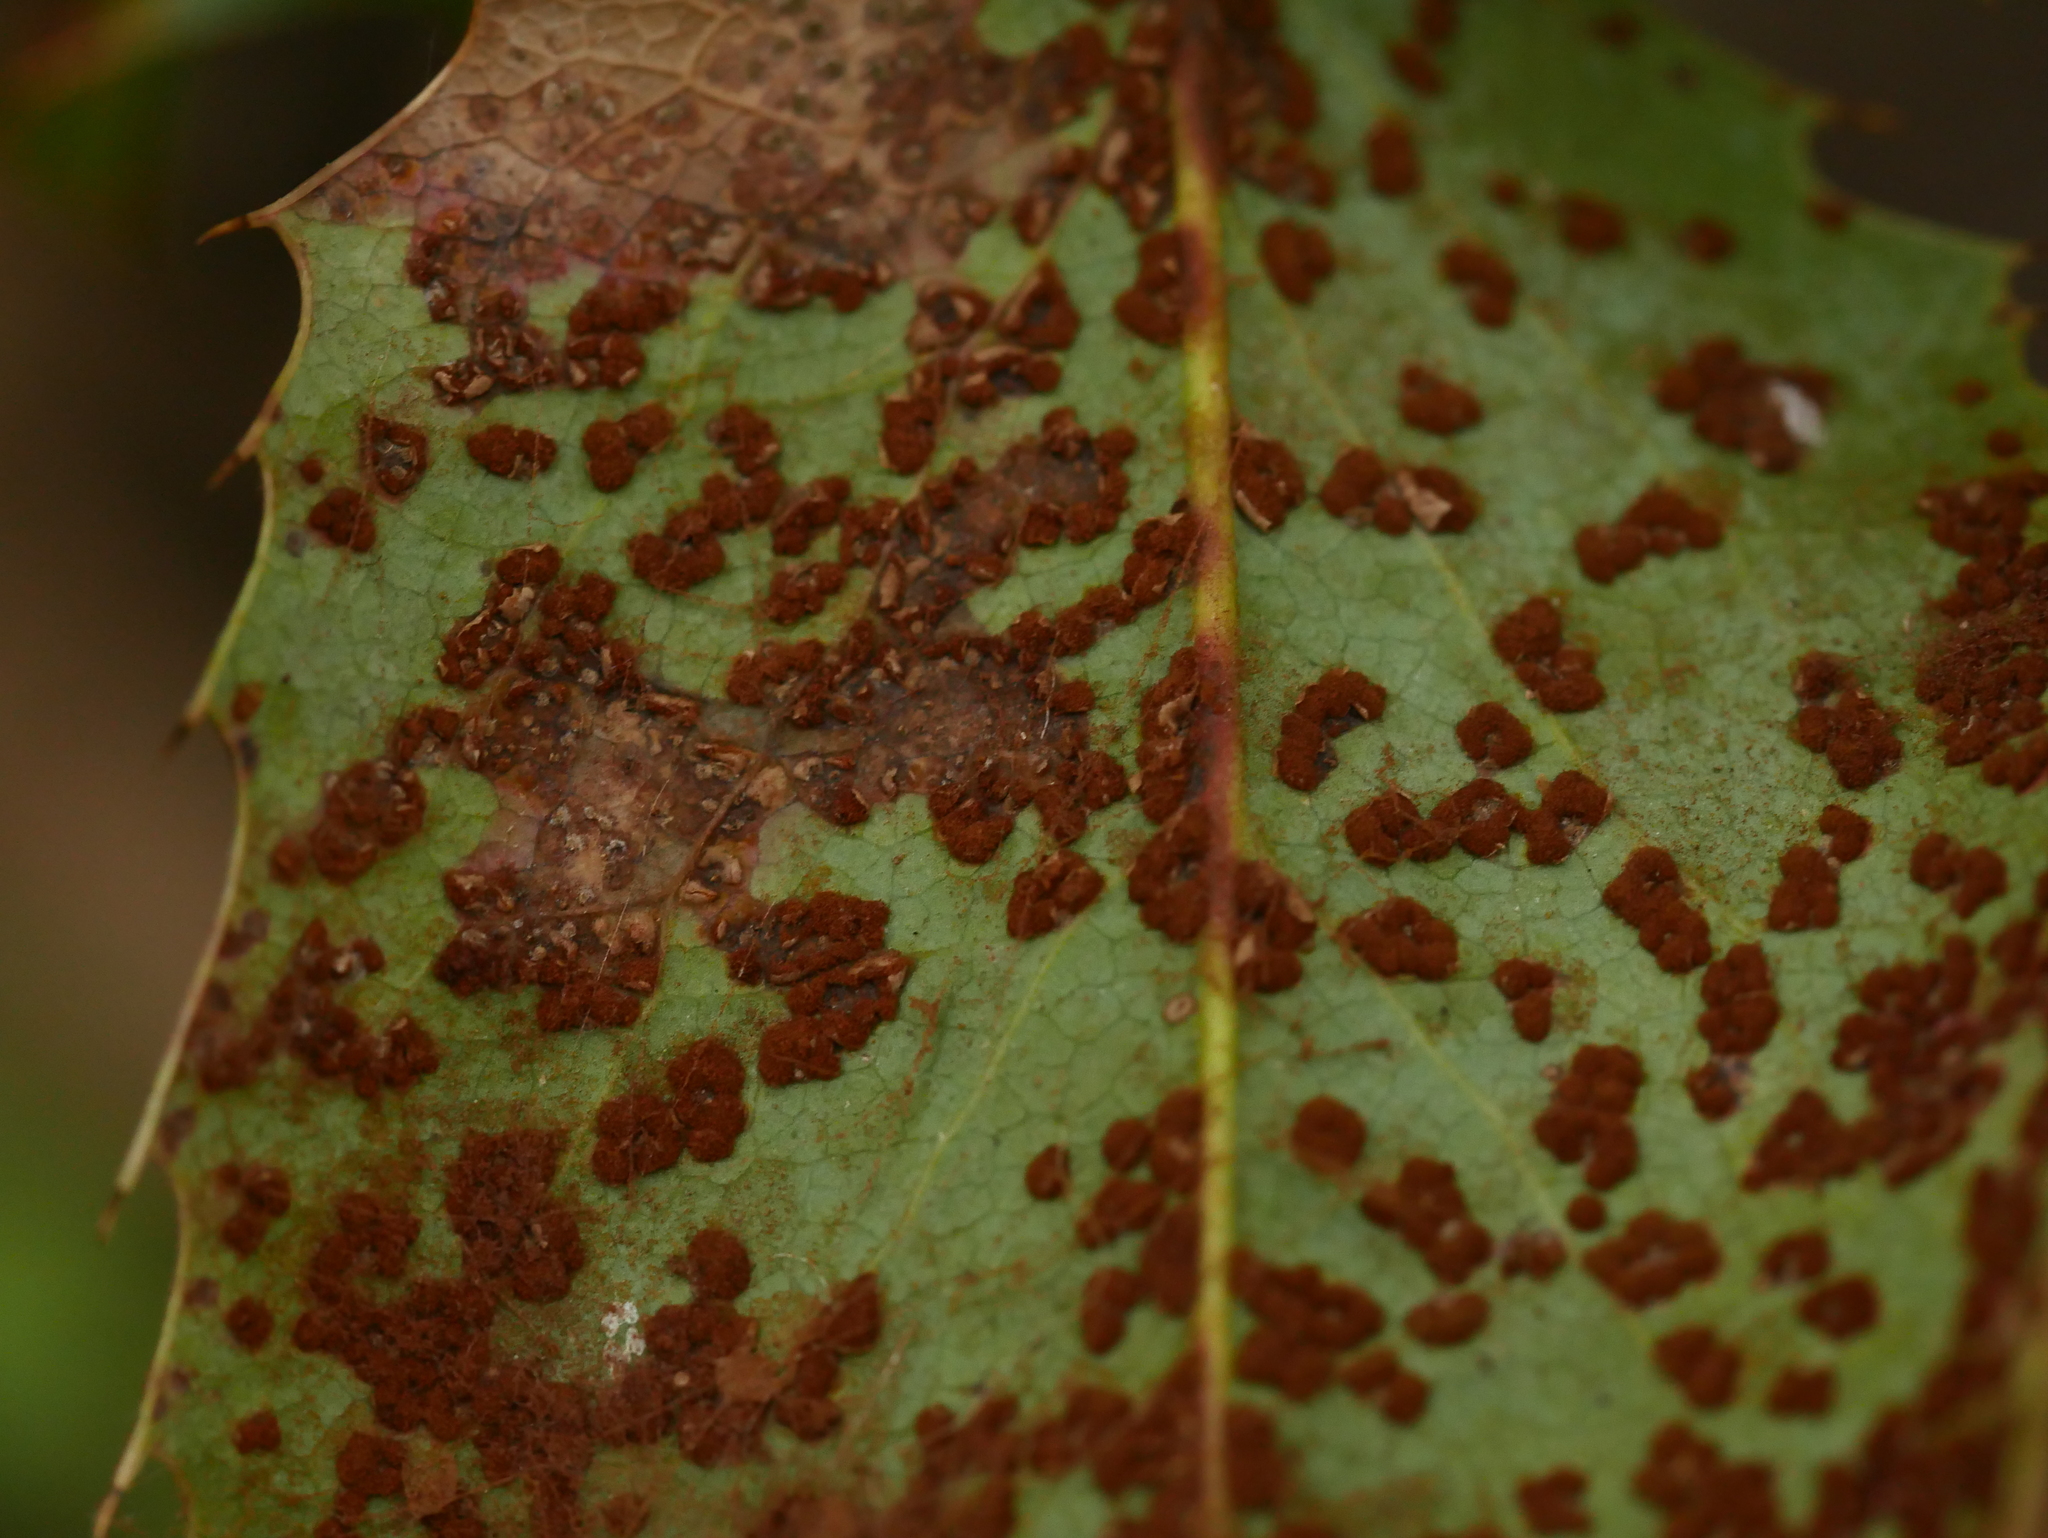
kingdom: Fungi
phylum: Basidiomycota
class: Pucciniomycetes
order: Pucciniales
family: Pucciniaceae
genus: Cumminsiella
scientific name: Cumminsiella mirabilissima
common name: Mahonia rust
